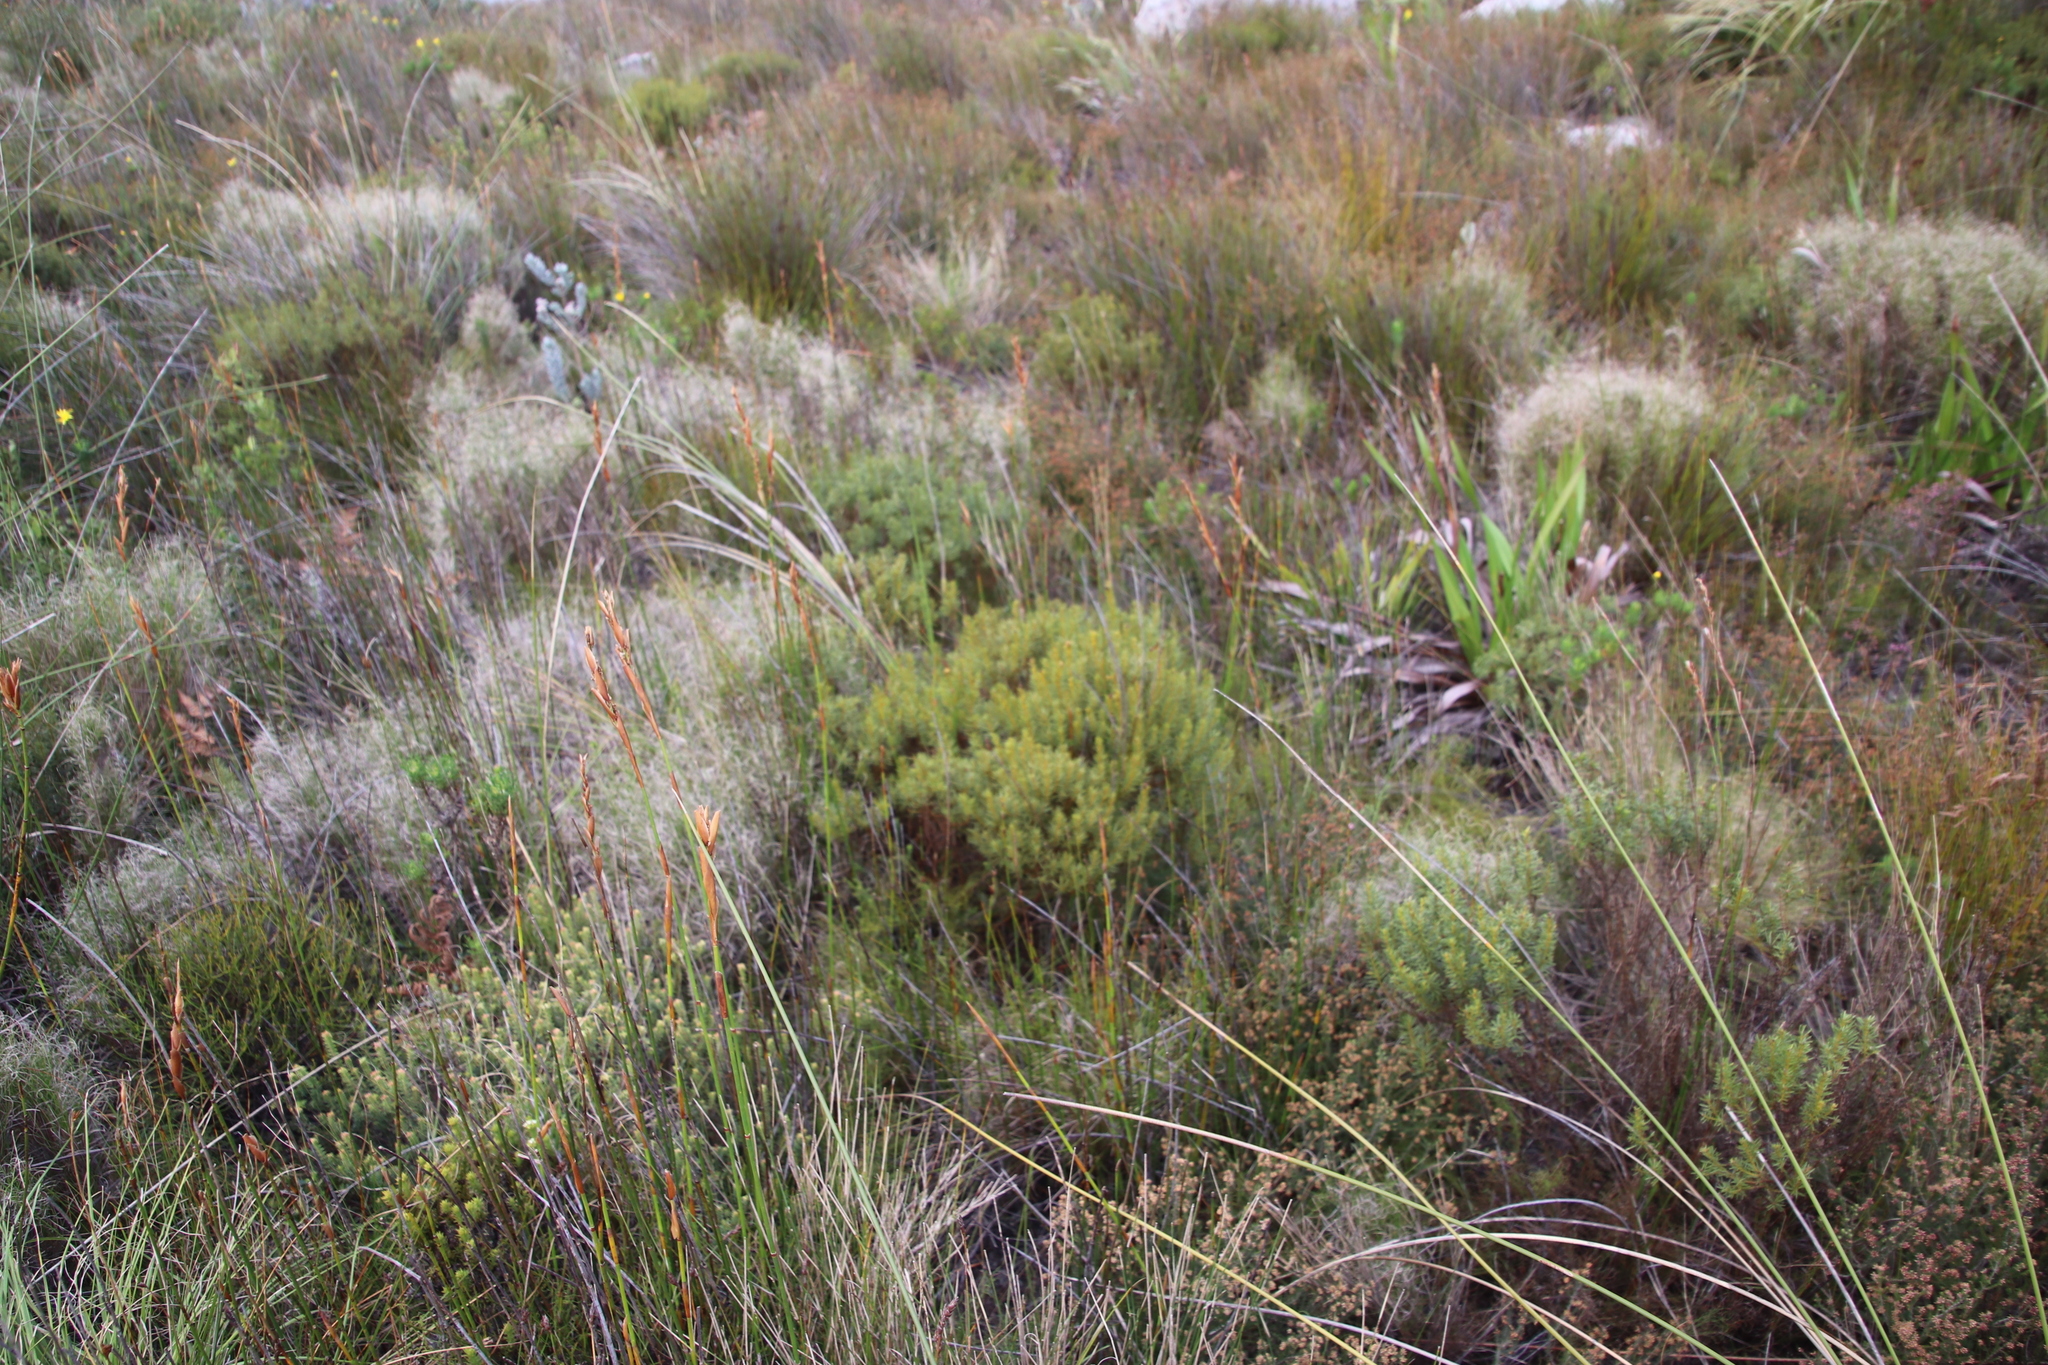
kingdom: Plantae
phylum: Tracheophyta
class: Magnoliopsida
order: Fabales
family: Fabaceae
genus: Cyclopia
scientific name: Cyclopia genistoides
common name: Honeybush tea
